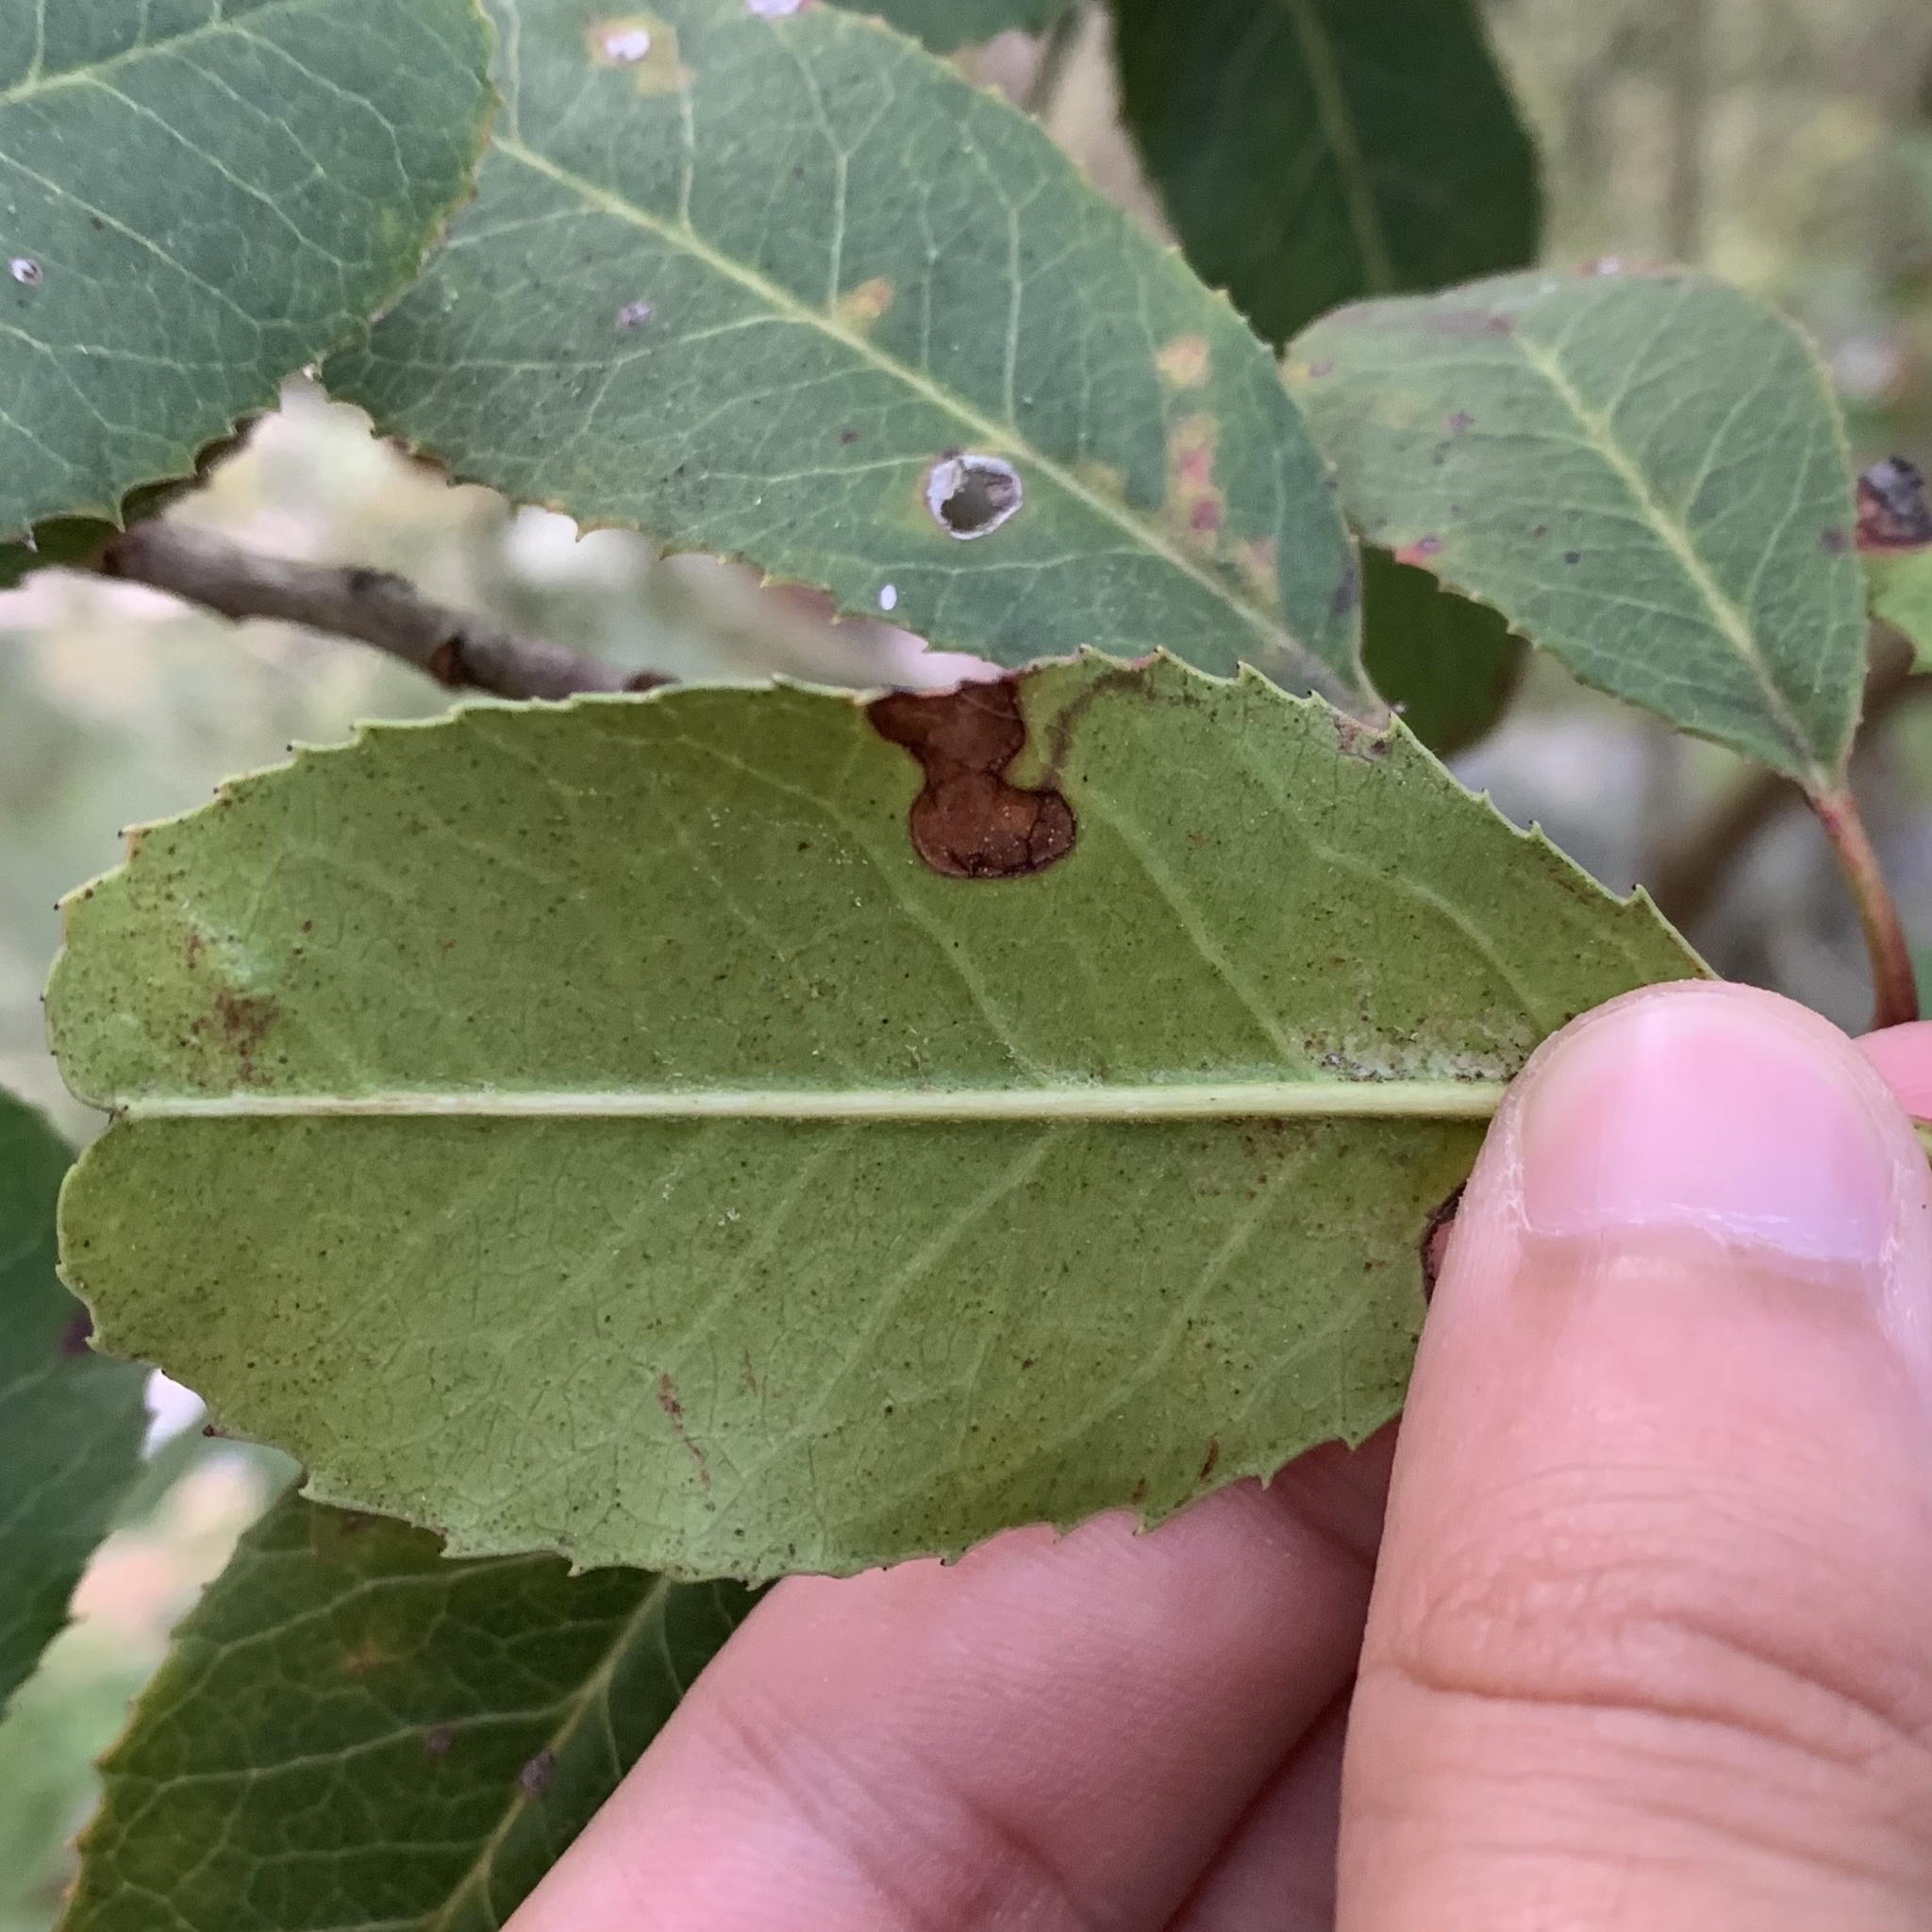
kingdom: Animalia
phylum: Arthropoda
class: Insecta
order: Lepidoptera
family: Nepticulidae
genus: Stigmella
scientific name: Stigmella heteromelis
